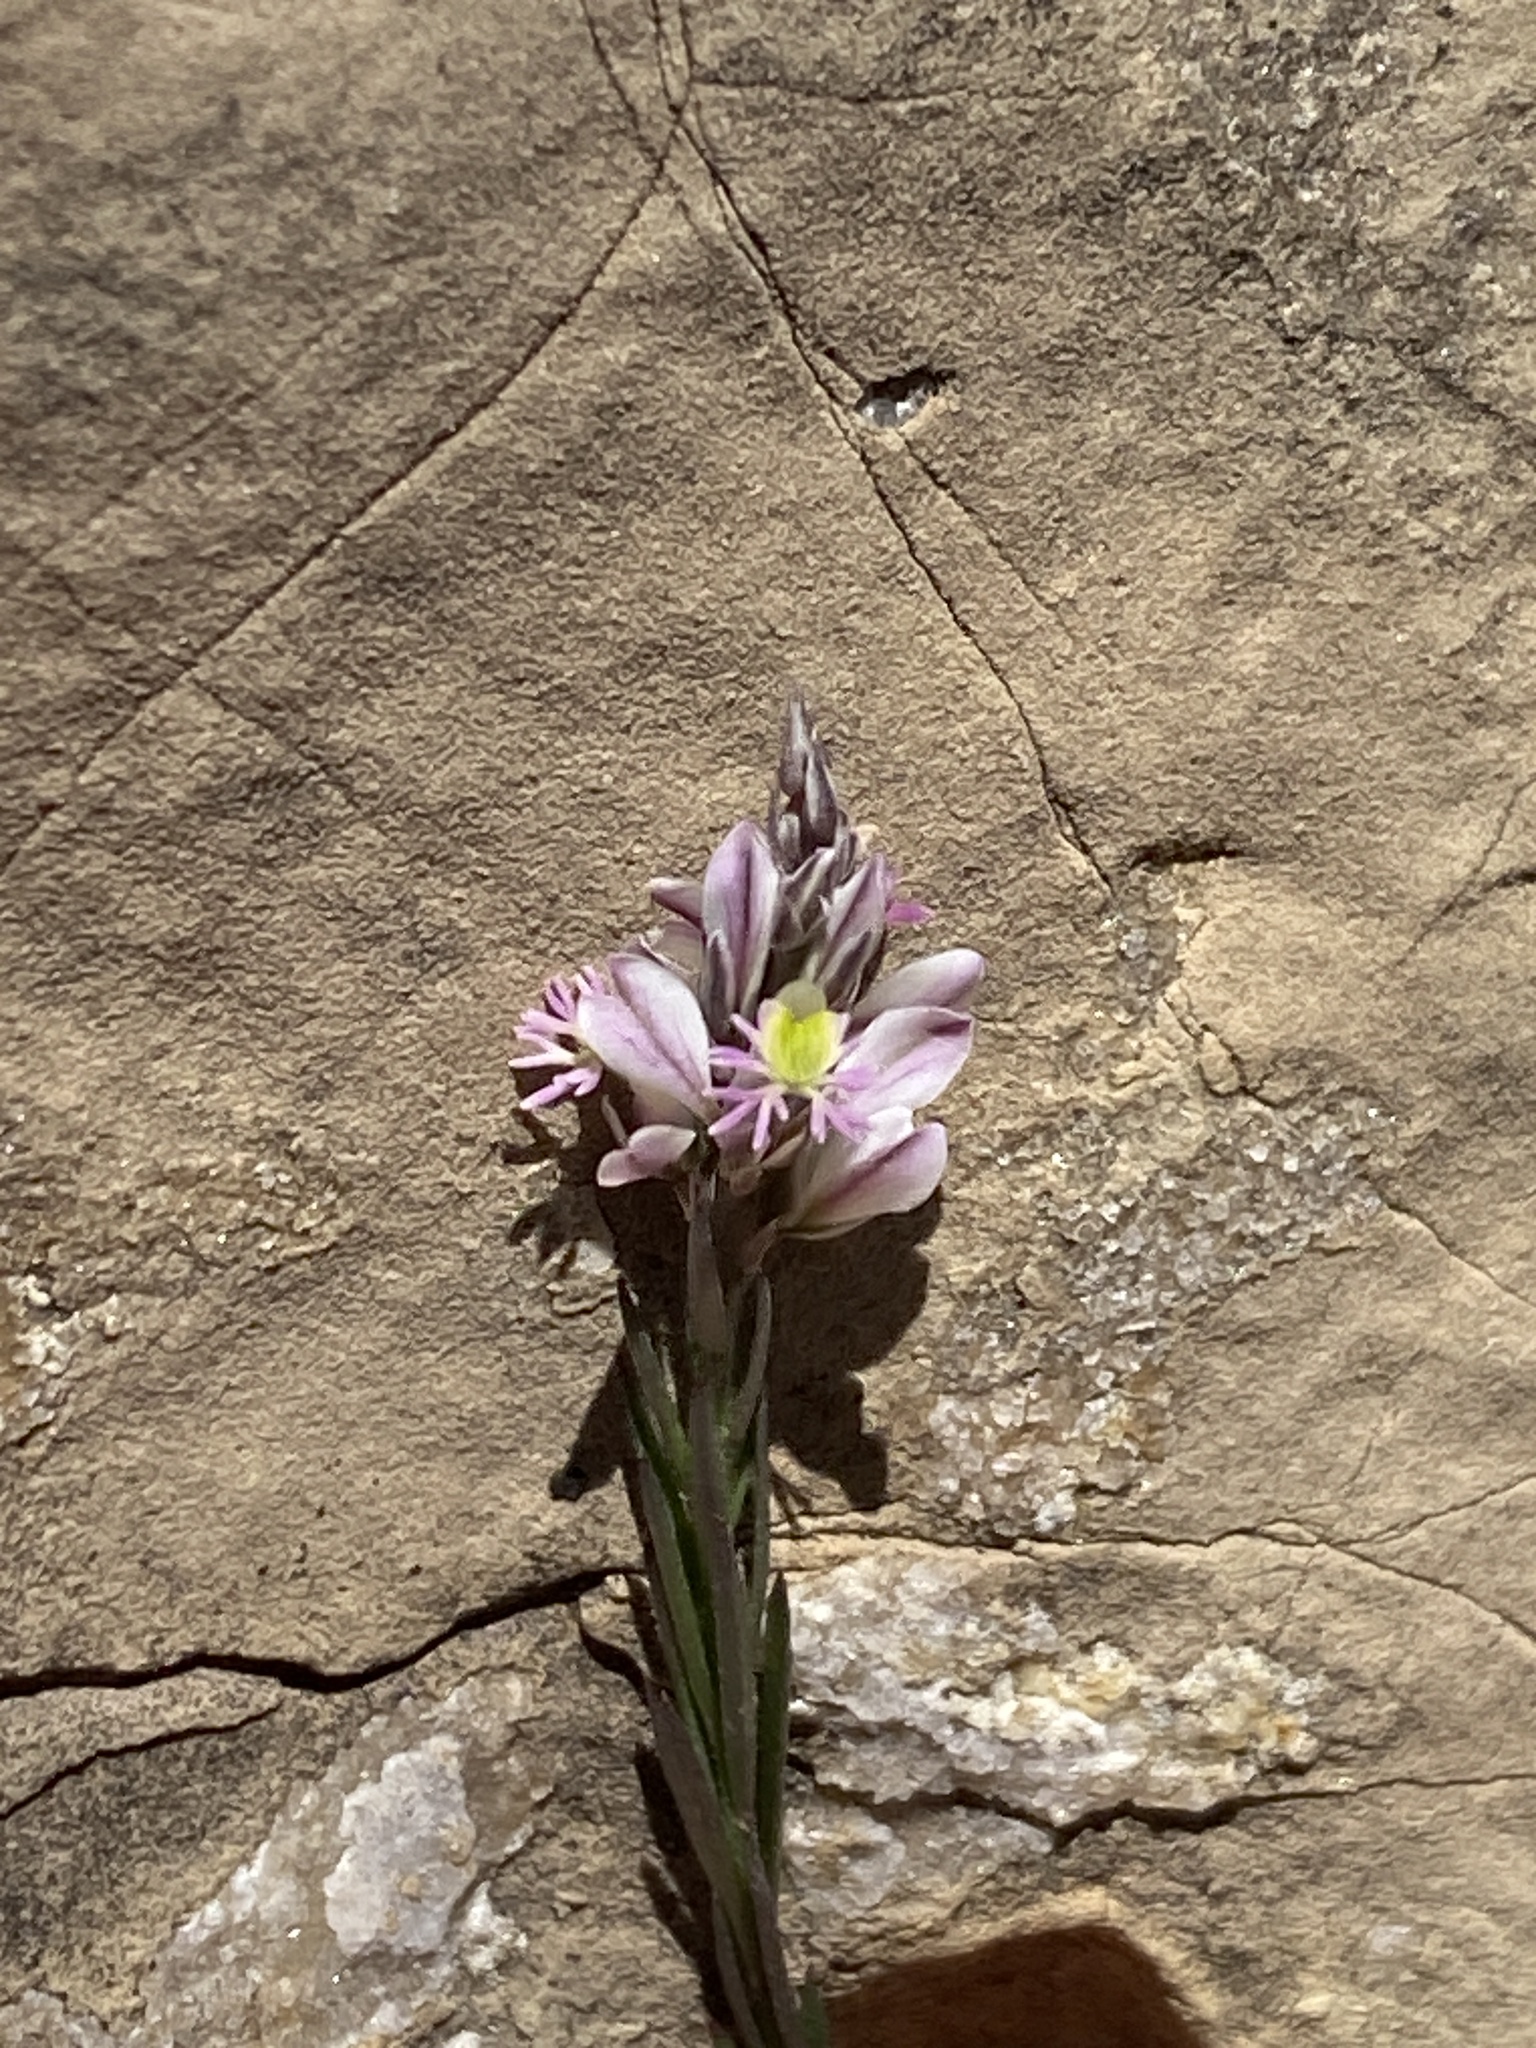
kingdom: Plantae
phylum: Tracheophyta
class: Magnoliopsida
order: Fabales
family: Polygalaceae
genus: Polygala
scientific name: Polygala scoparioides
